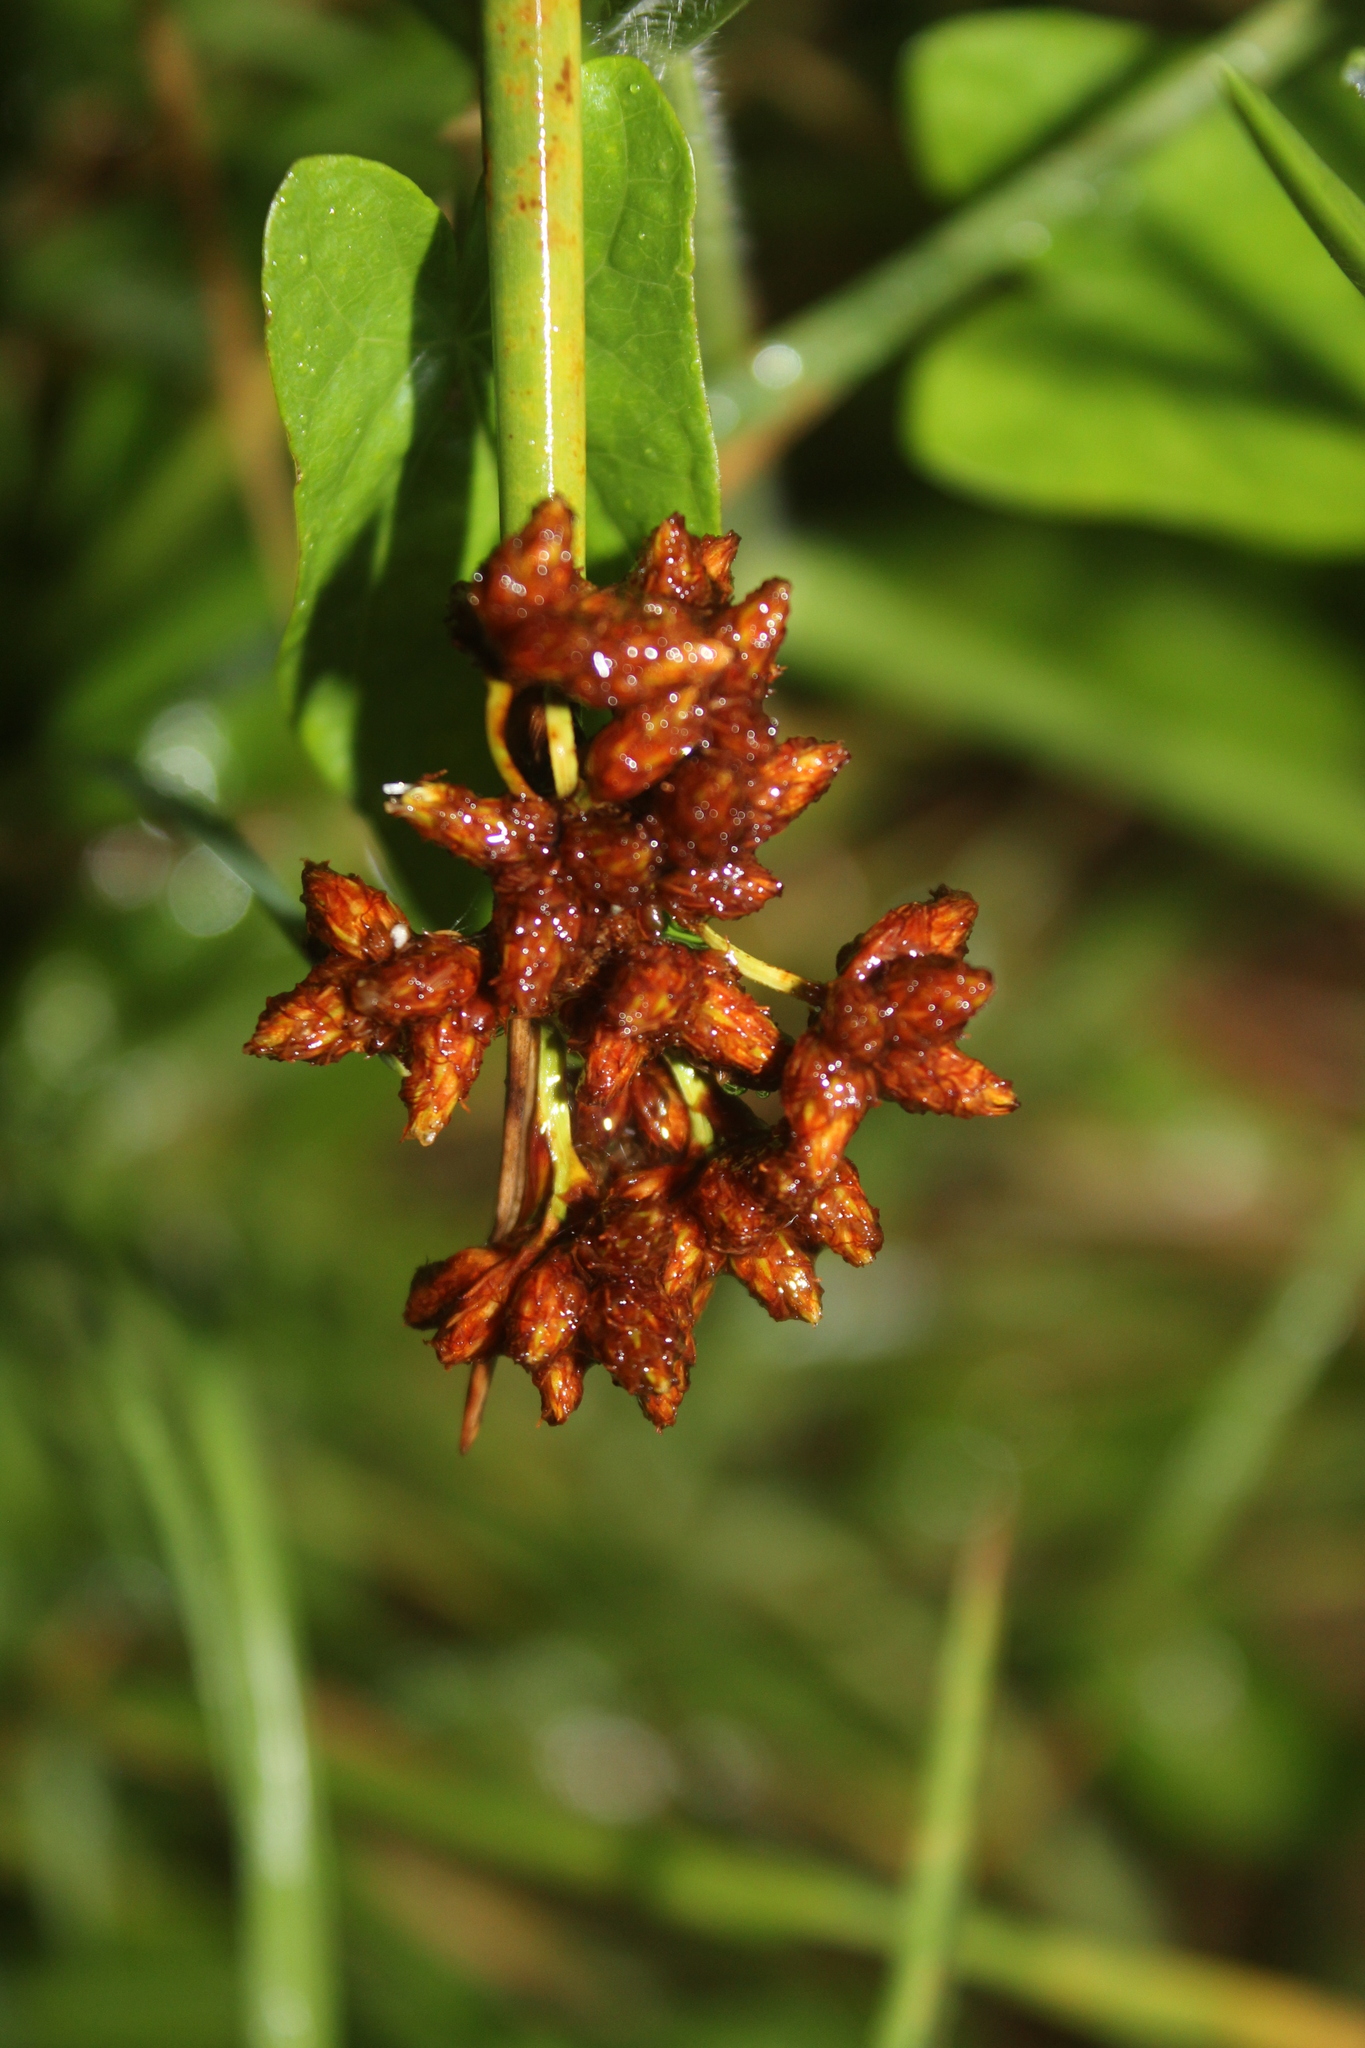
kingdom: Plantae
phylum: Tracheophyta
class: Liliopsida
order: Poales
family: Cyperaceae
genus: Schoenoplectus
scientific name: Schoenoplectus tabernaemontani
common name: Grey club-rush
